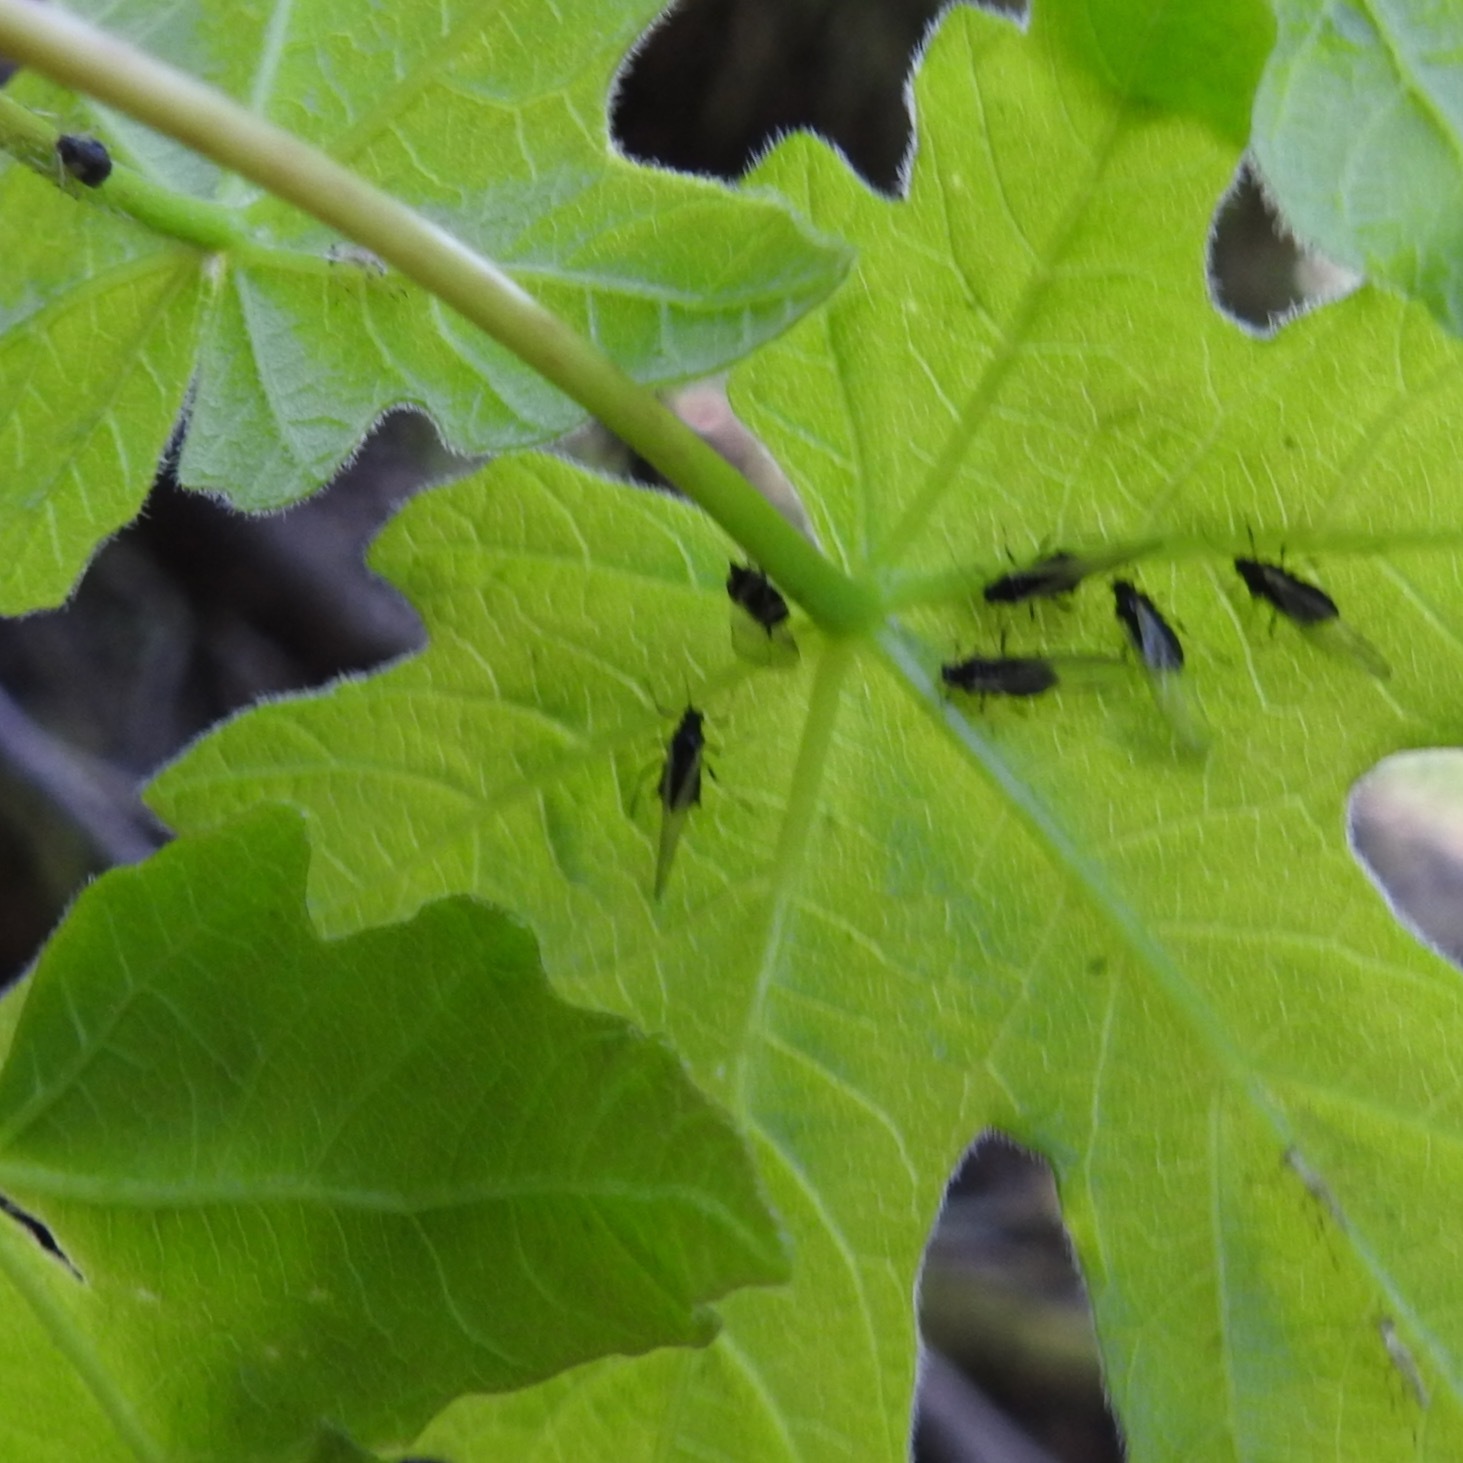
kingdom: Plantae
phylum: Tracheophyta
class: Magnoliopsida
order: Sapindales
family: Sapindaceae
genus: Acer
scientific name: Acer macrophyllum
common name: Oregon maple
